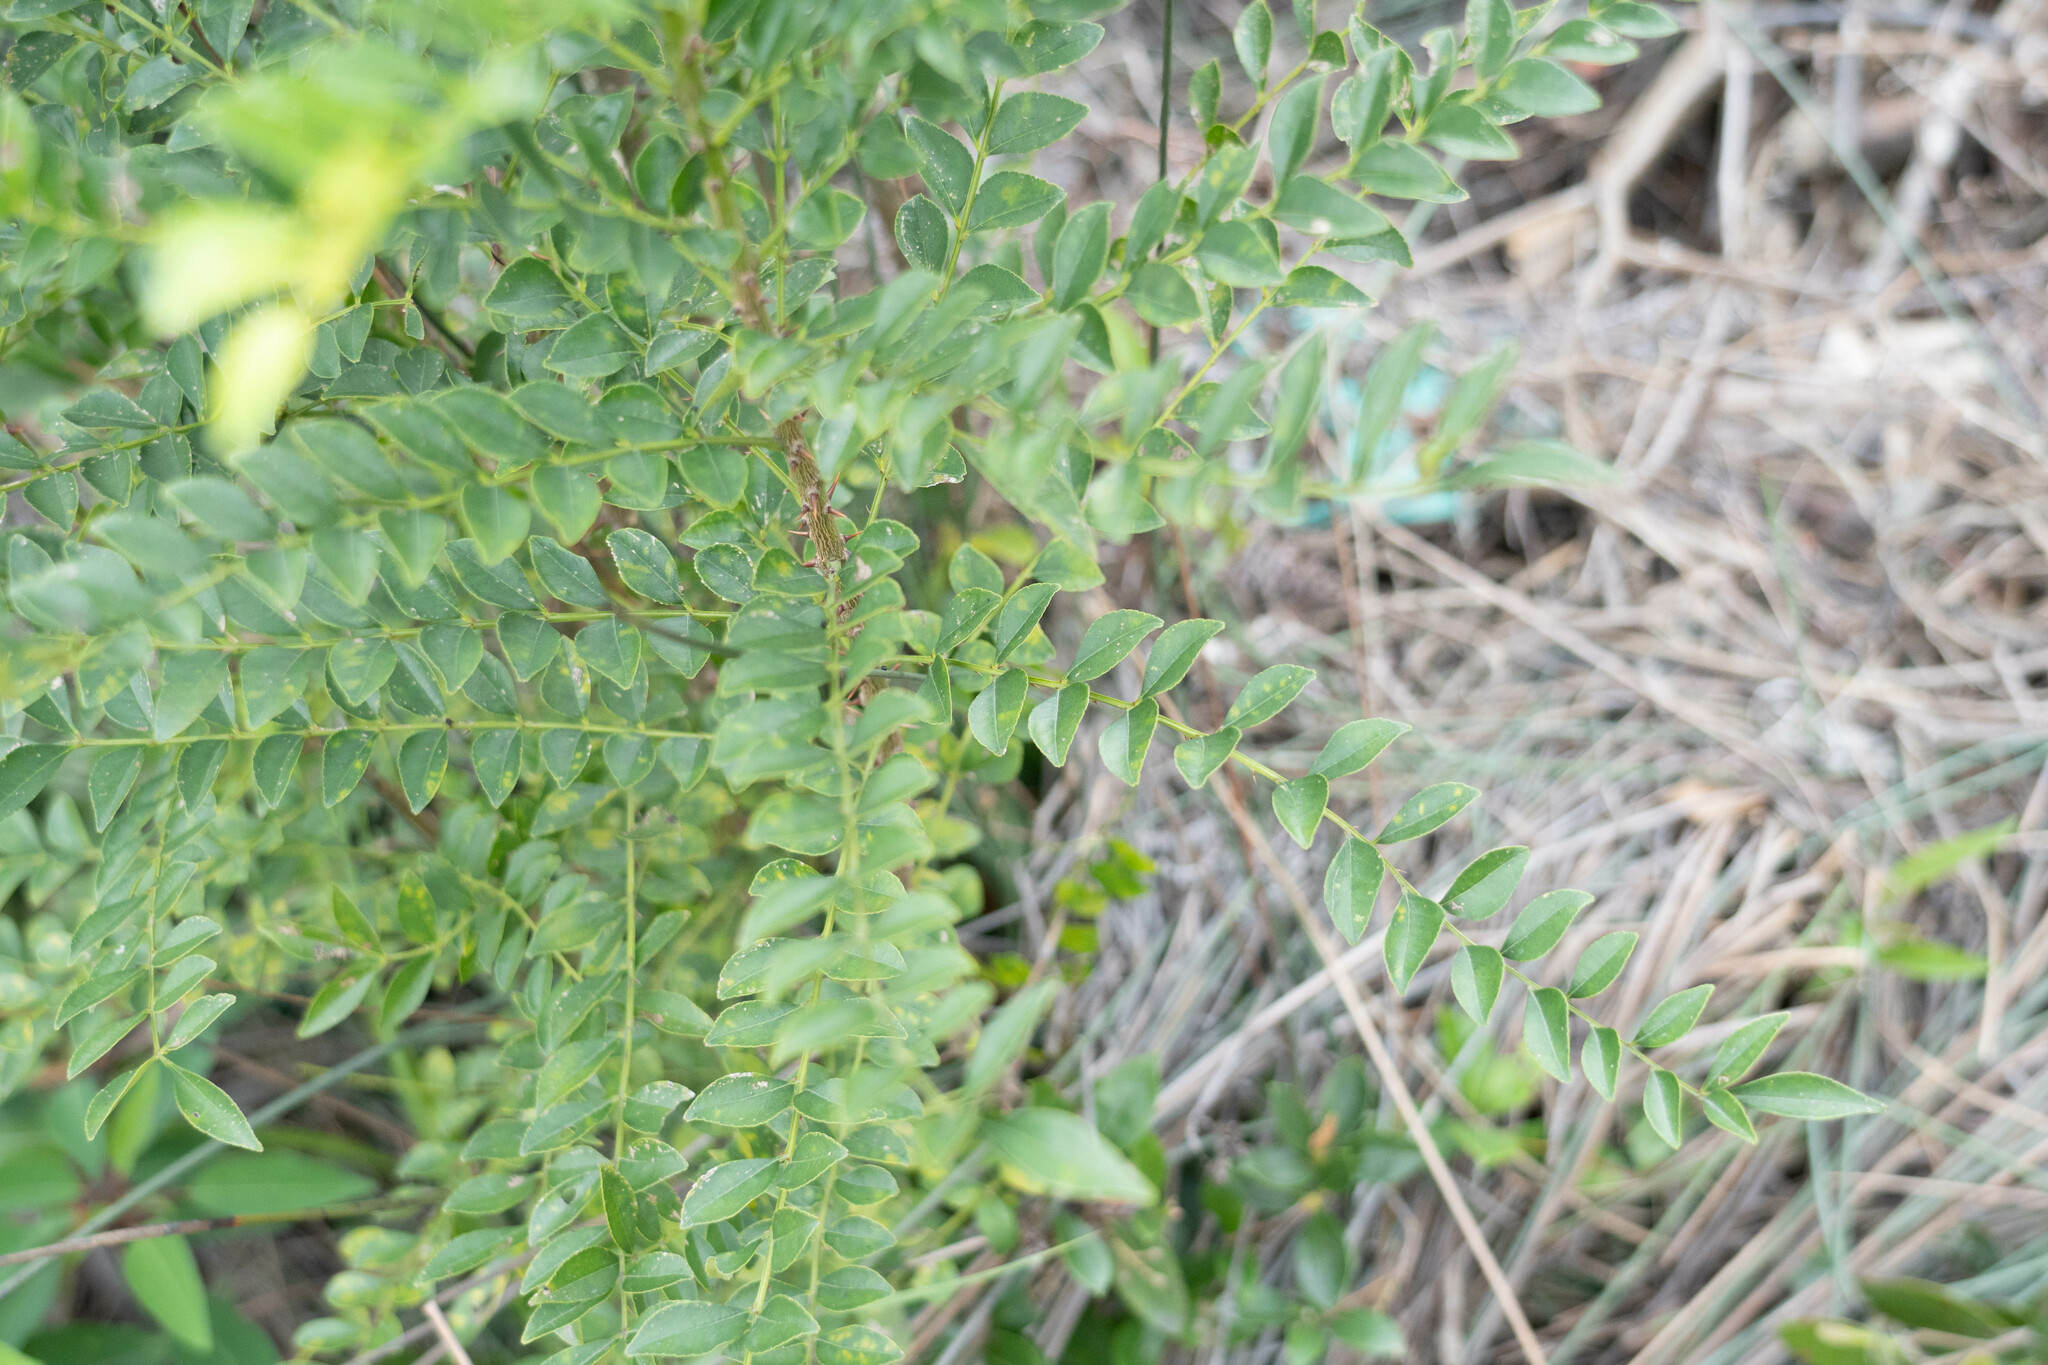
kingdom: Plantae
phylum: Tracheophyta
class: Magnoliopsida
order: Sapindales
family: Rutaceae
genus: Zanthoxylum
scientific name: Zanthoxylum avicennae
